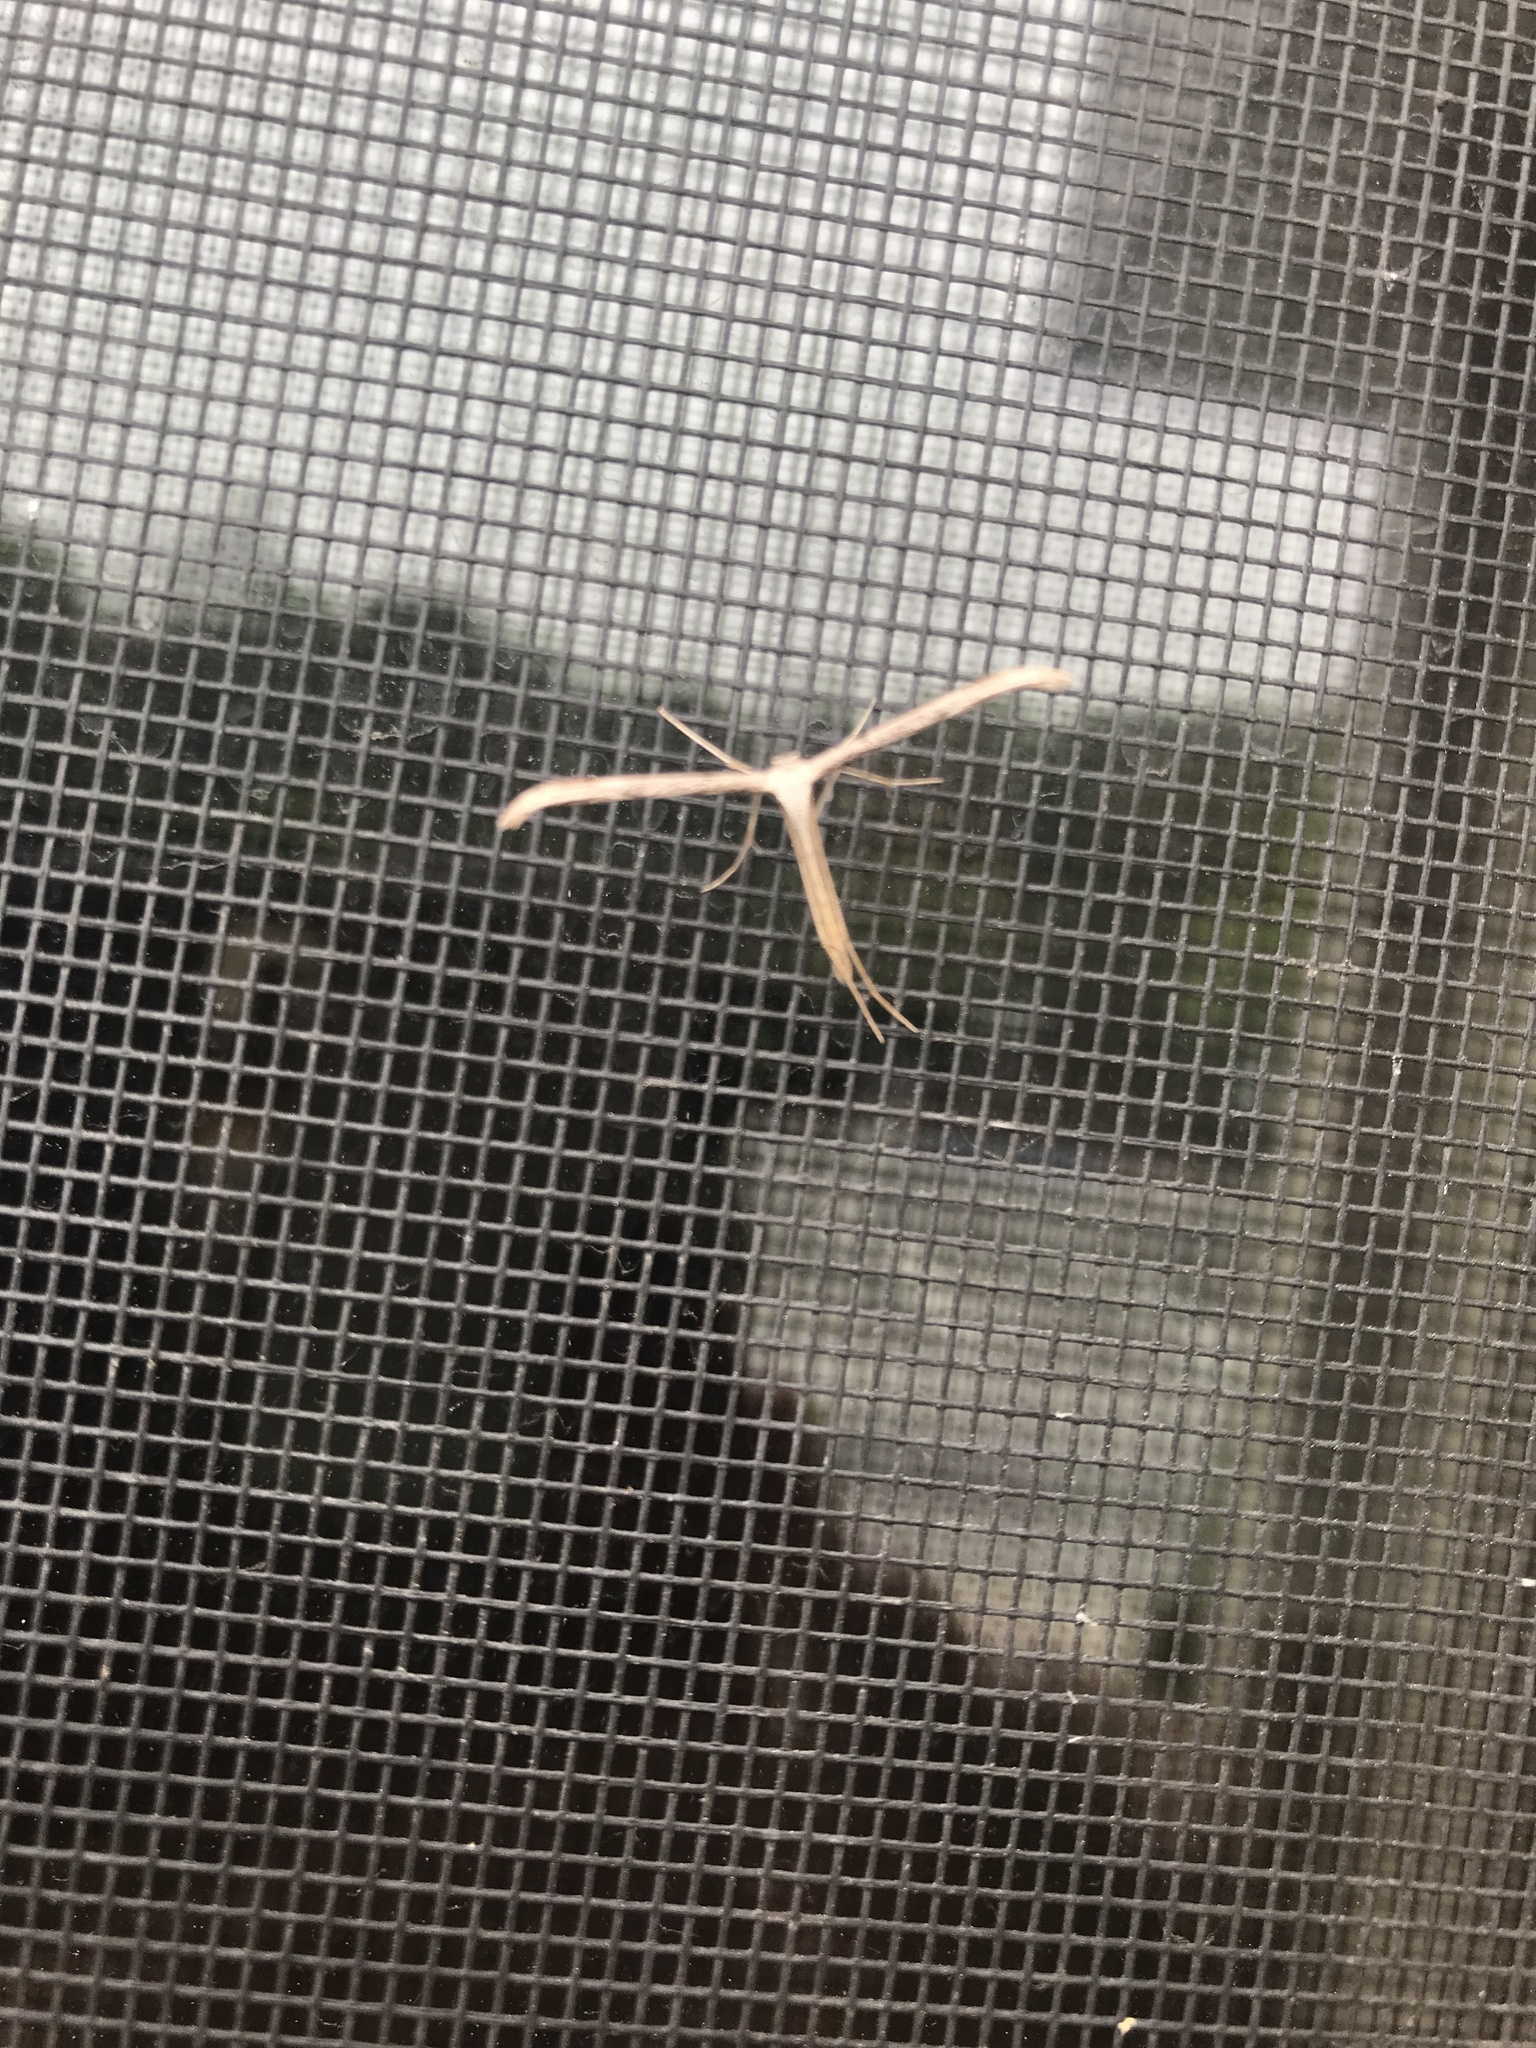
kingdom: Animalia
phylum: Arthropoda
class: Insecta
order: Lepidoptera
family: Pterophoridae
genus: Emmelina
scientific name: Emmelina monodactyla
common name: Common plume
